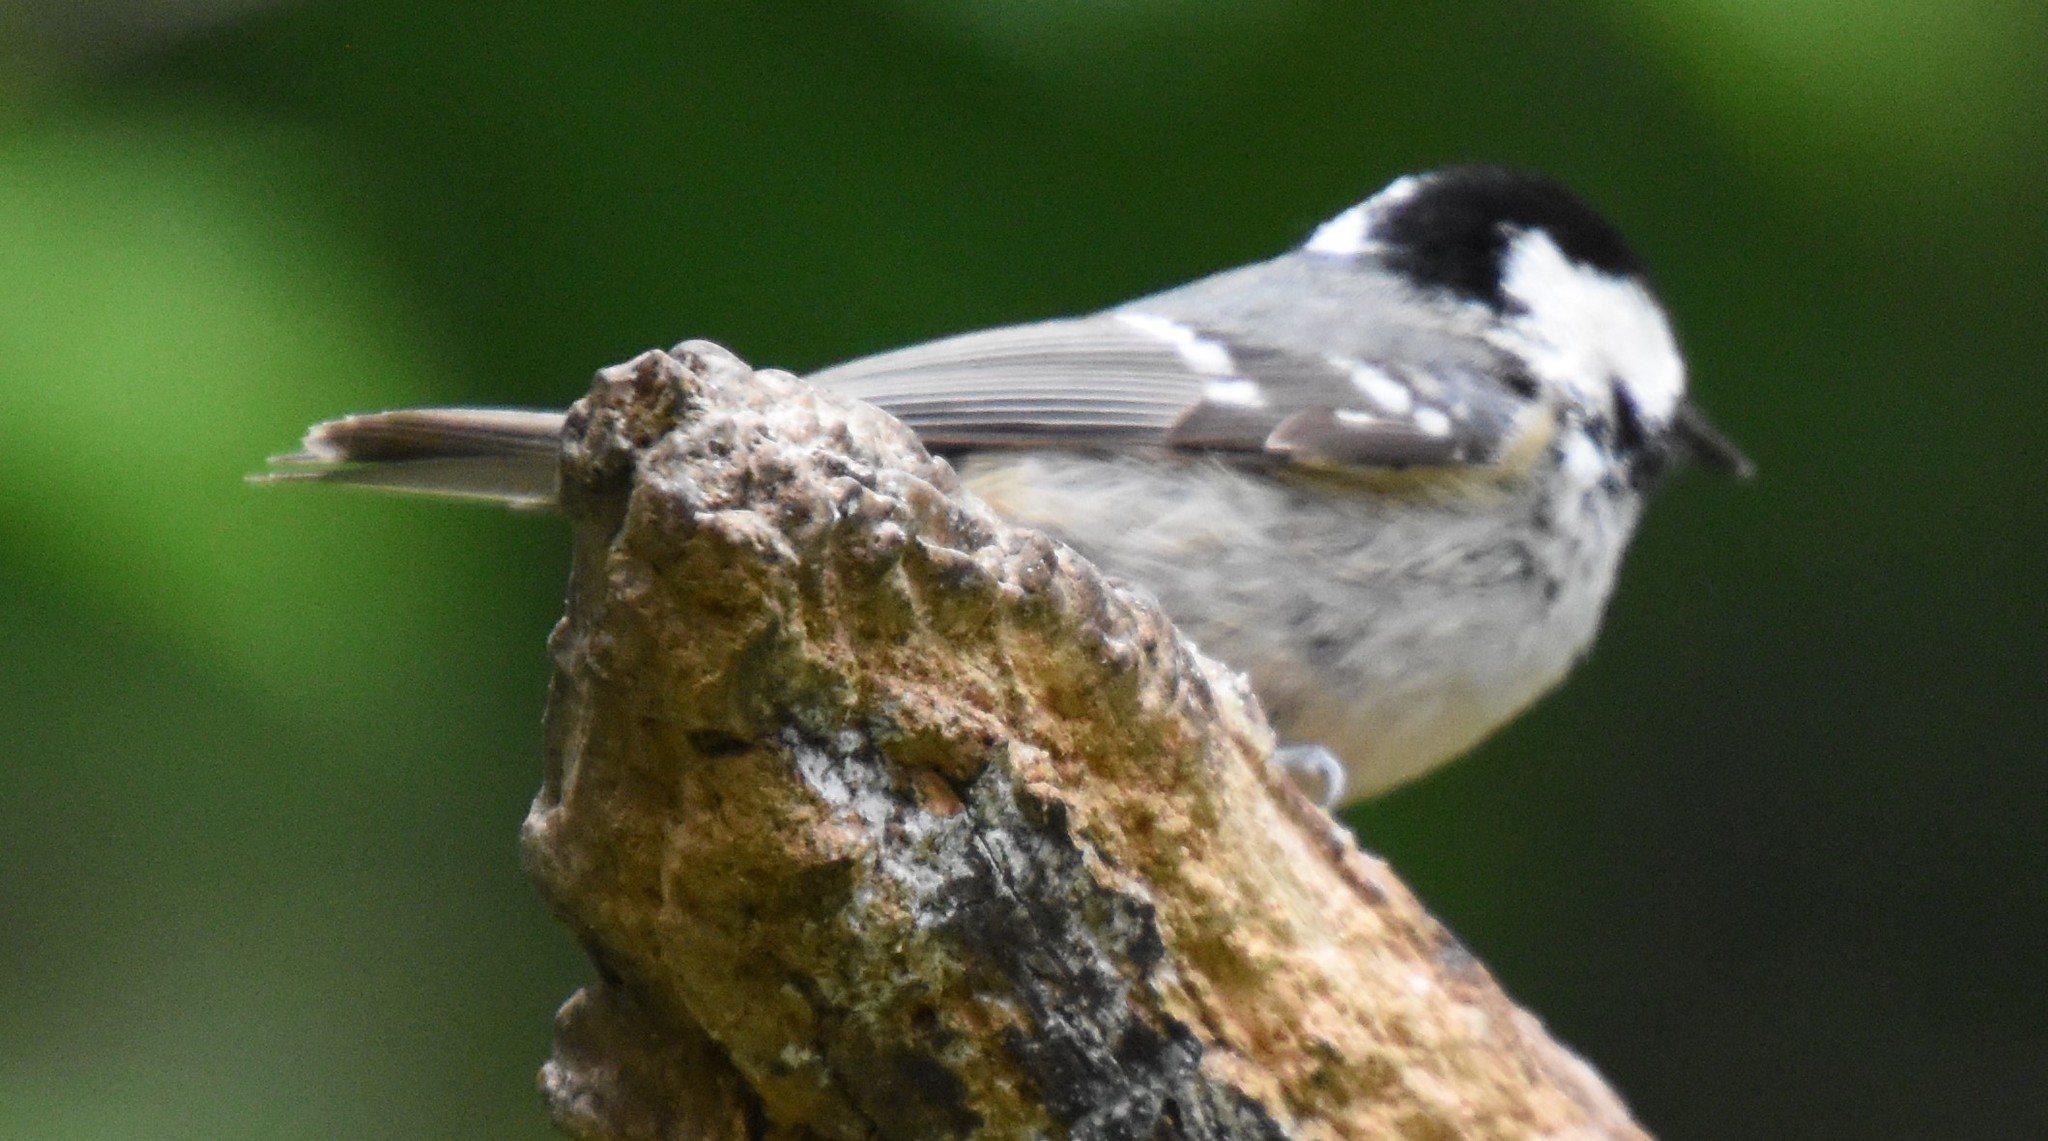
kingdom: Animalia
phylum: Chordata
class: Aves
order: Passeriformes
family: Paridae
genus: Periparus
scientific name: Periparus ater
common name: Coal tit
